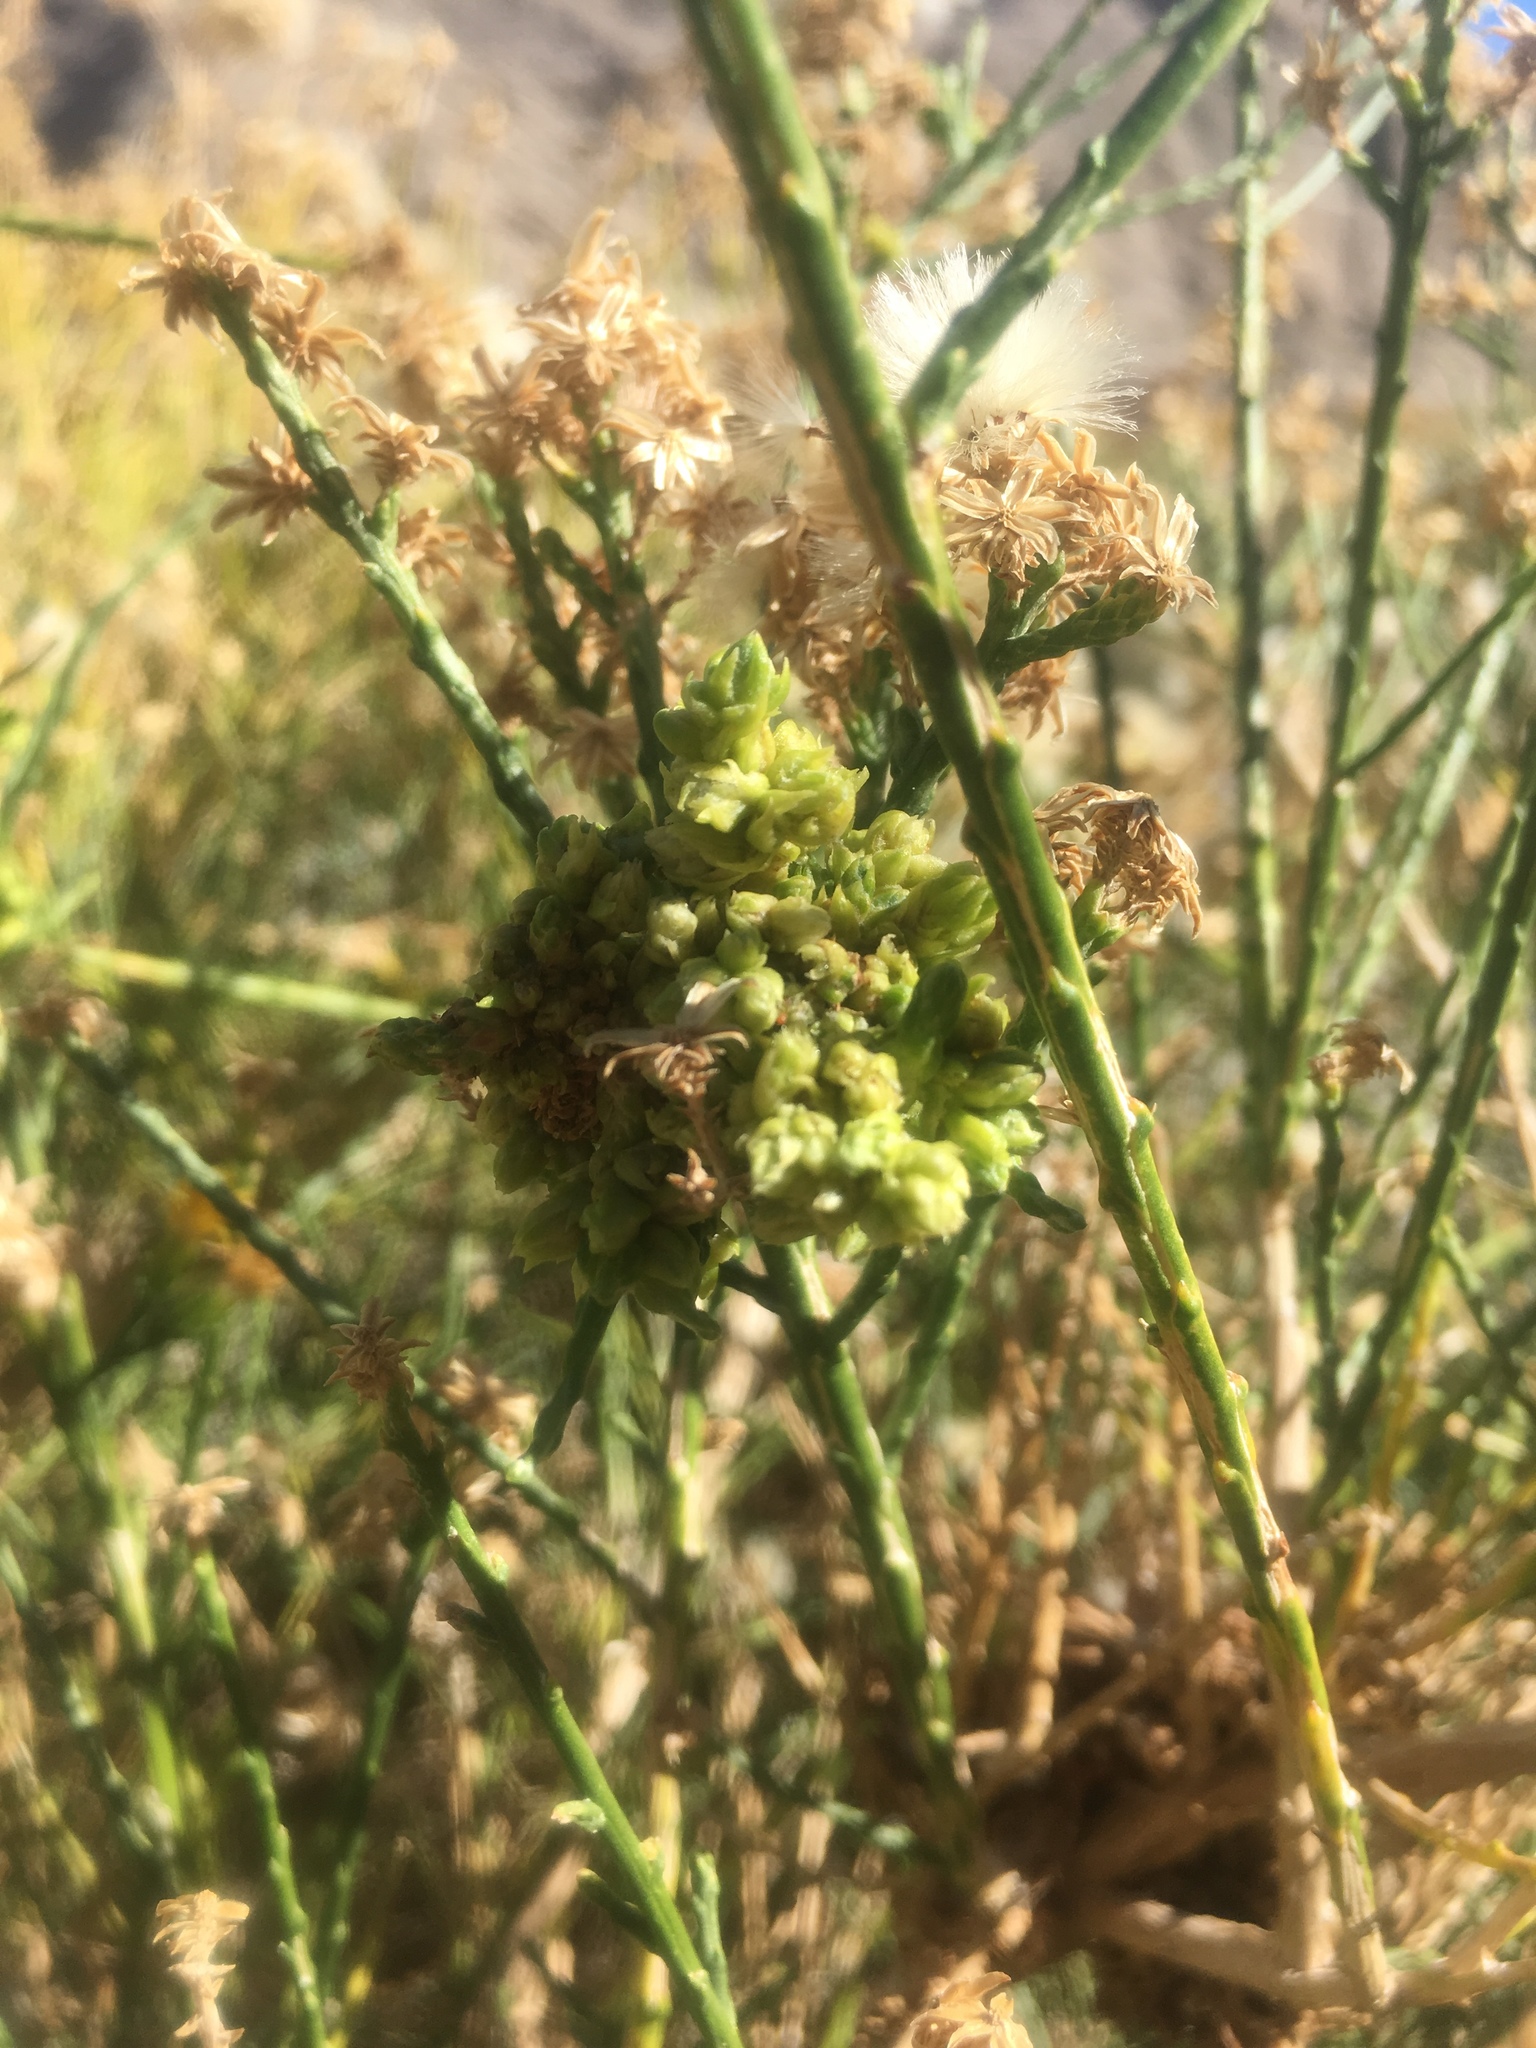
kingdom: Animalia
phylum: Arthropoda
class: Arachnida
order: Trombidiformes
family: Eriophyidae
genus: Eriophyes
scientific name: Eriophyes
